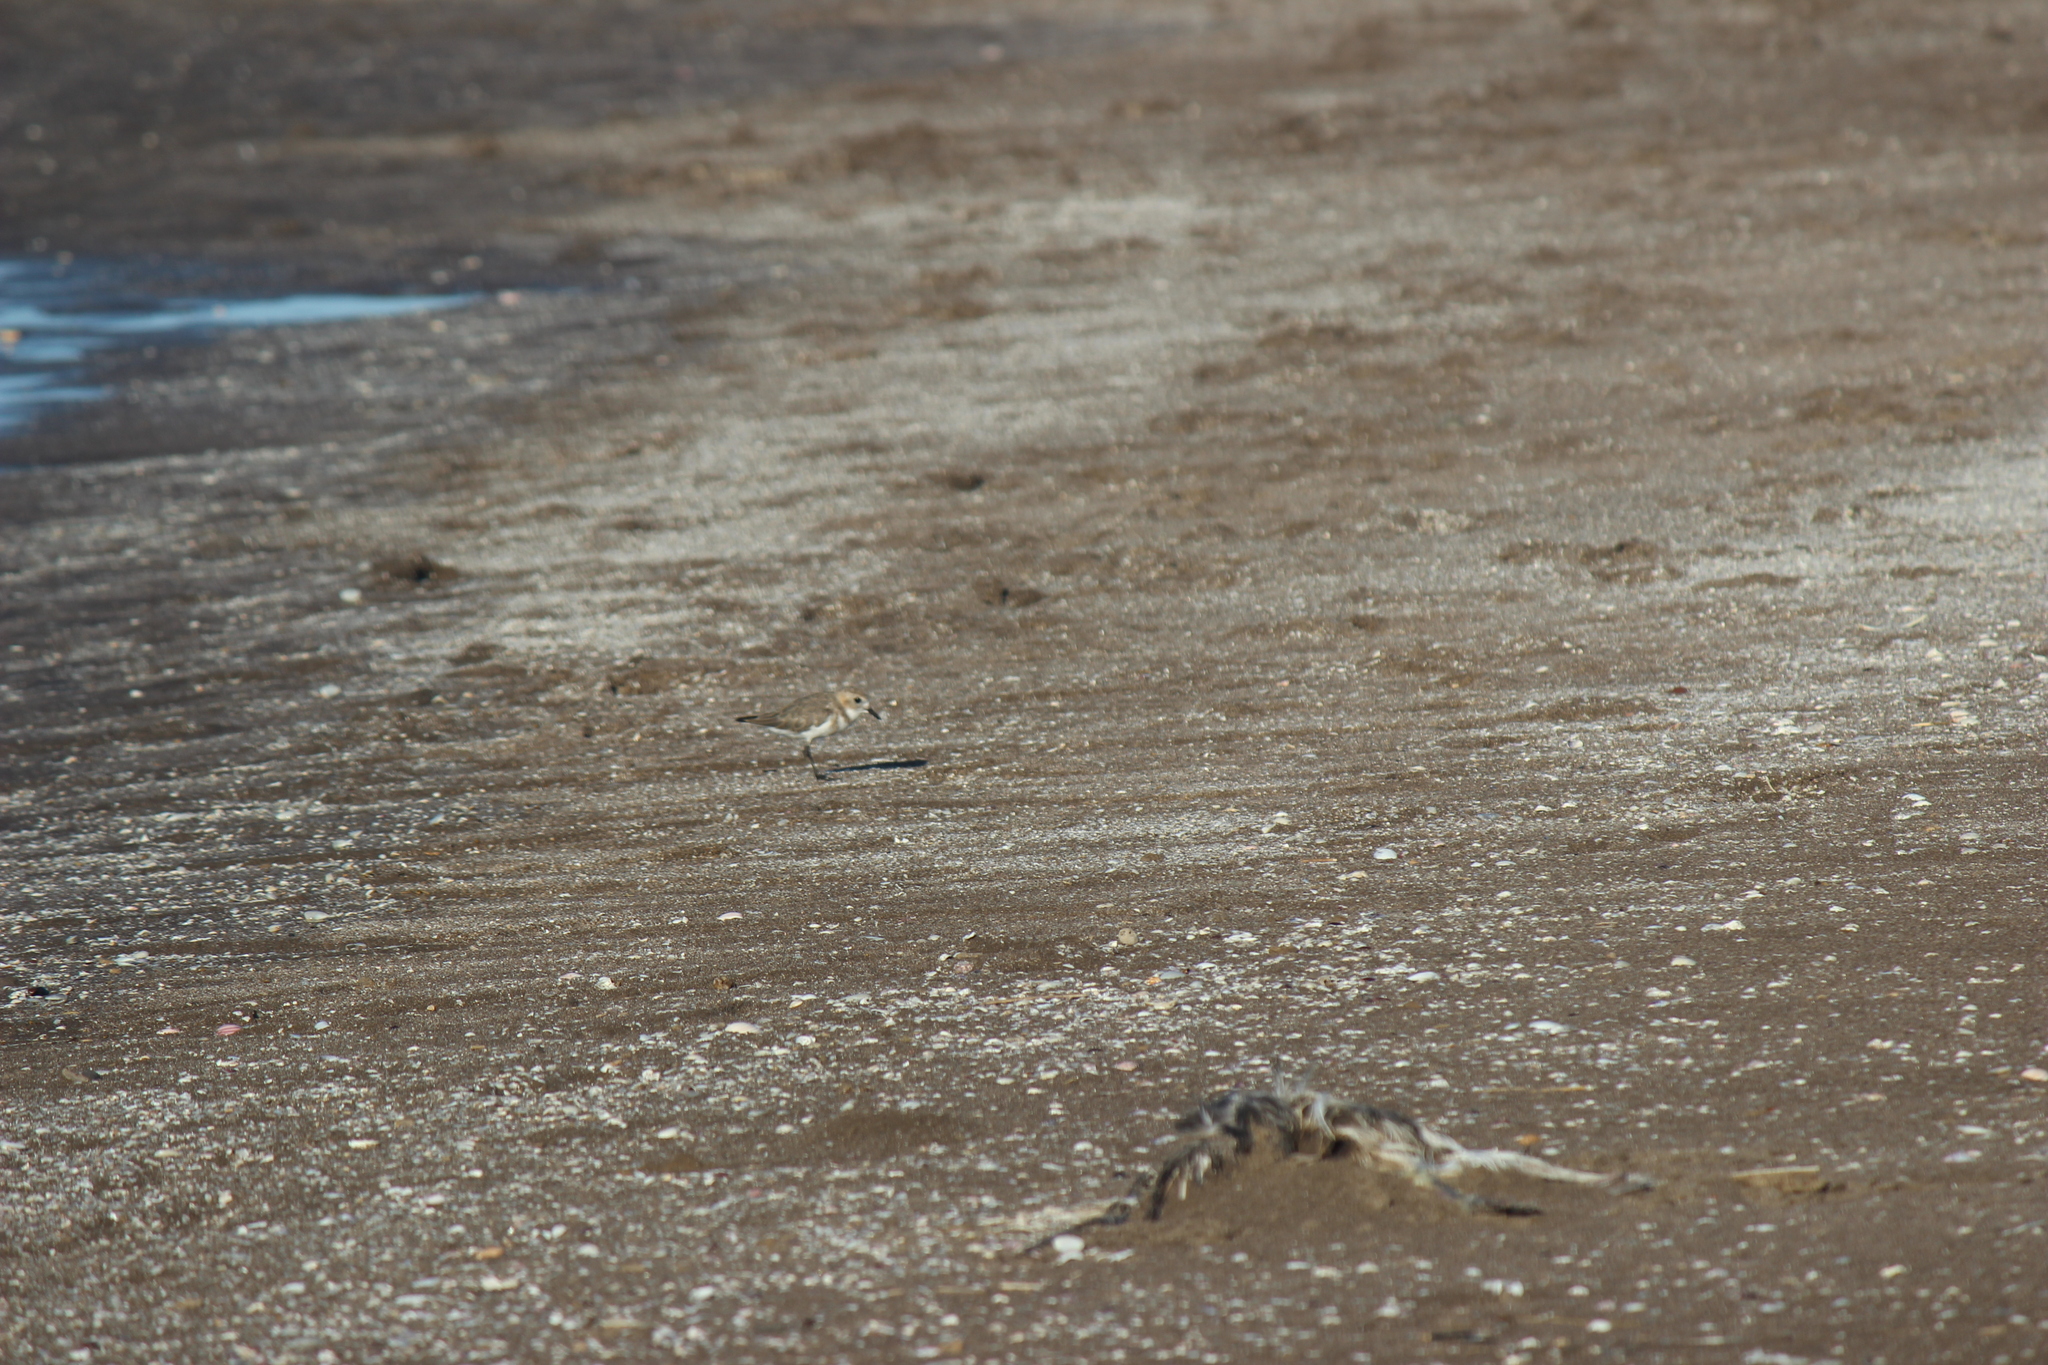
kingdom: Animalia
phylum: Chordata
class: Aves
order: Charadriiformes
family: Charadriidae
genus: Anarhynchus
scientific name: Anarhynchus
